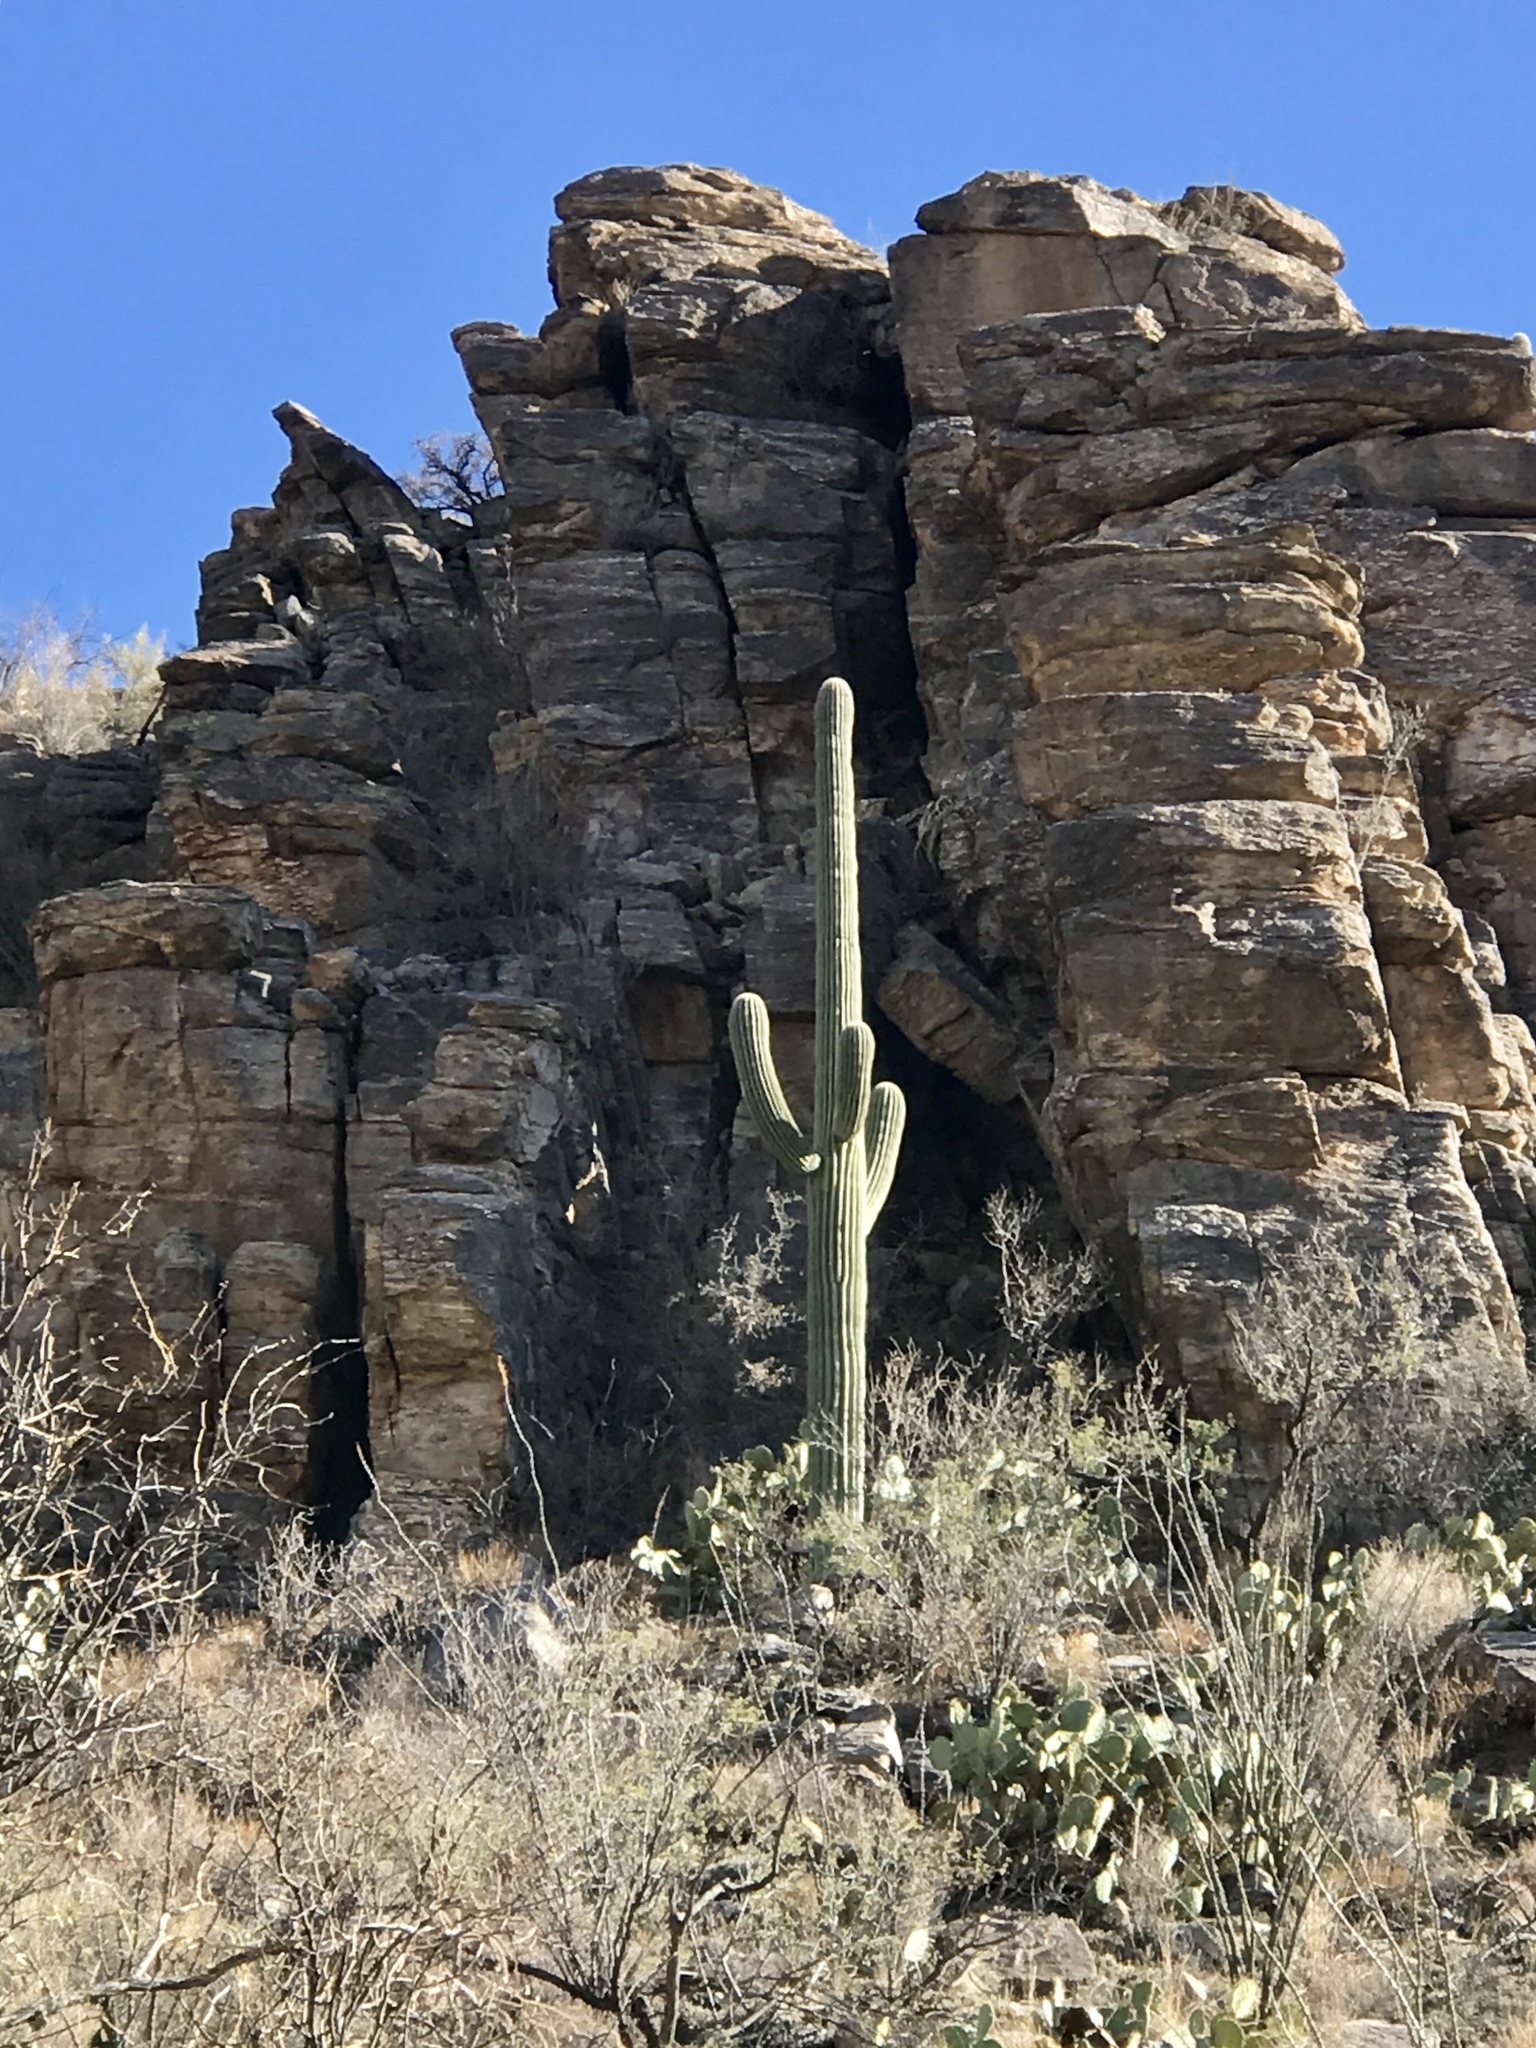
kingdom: Plantae
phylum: Tracheophyta
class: Magnoliopsida
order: Caryophyllales
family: Cactaceae
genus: Carnegiea
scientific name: Carnegiea gigantea
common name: Saguaro
